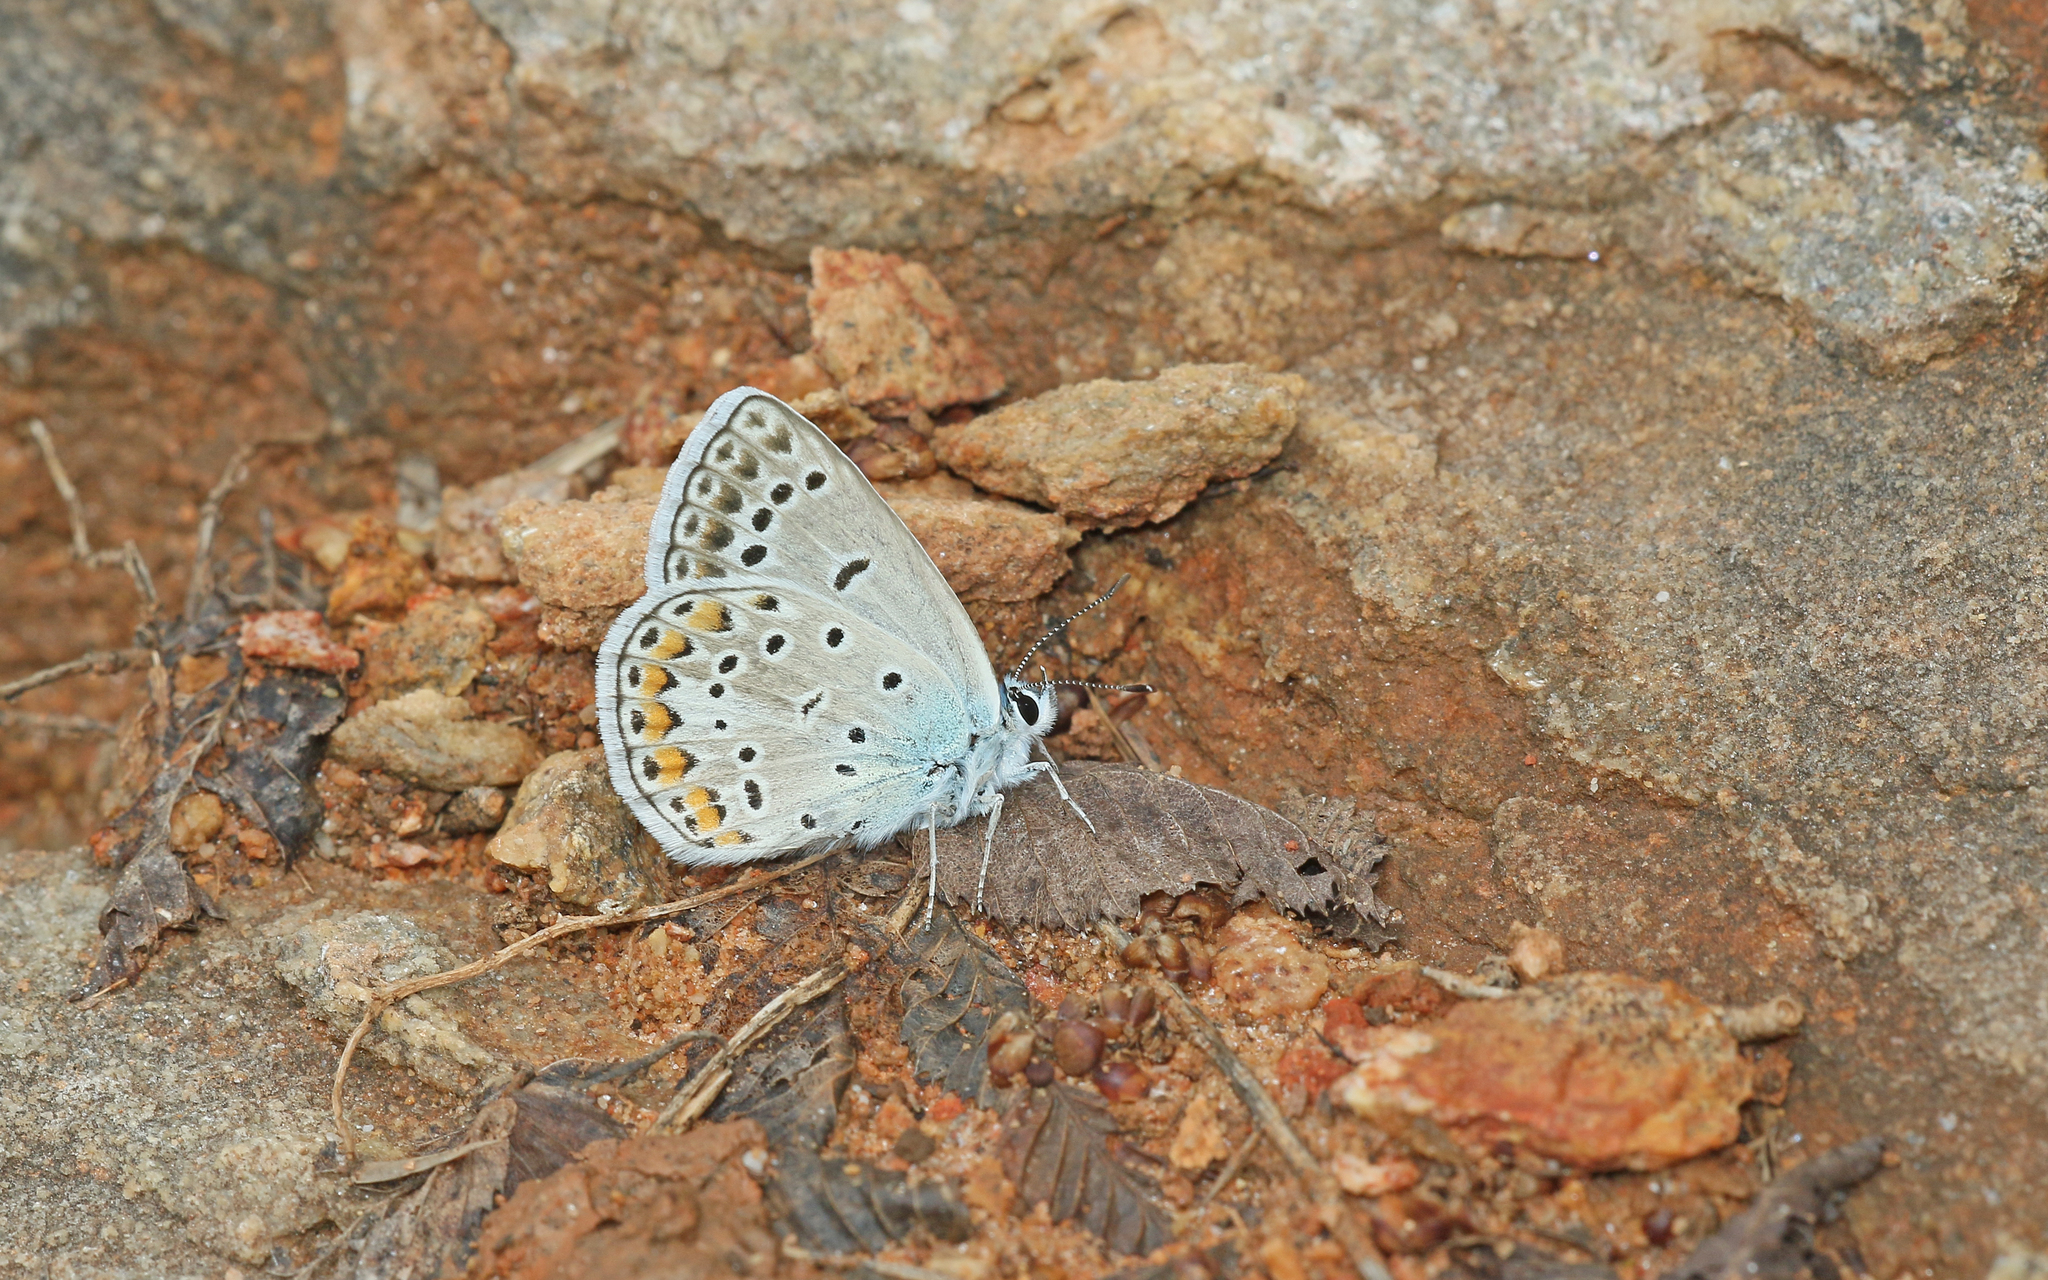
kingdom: Animalia
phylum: Arthropoda
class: Insecta
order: Lepidoptera
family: Lycaenidae
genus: Plebicula
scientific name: Plebicula escheri
